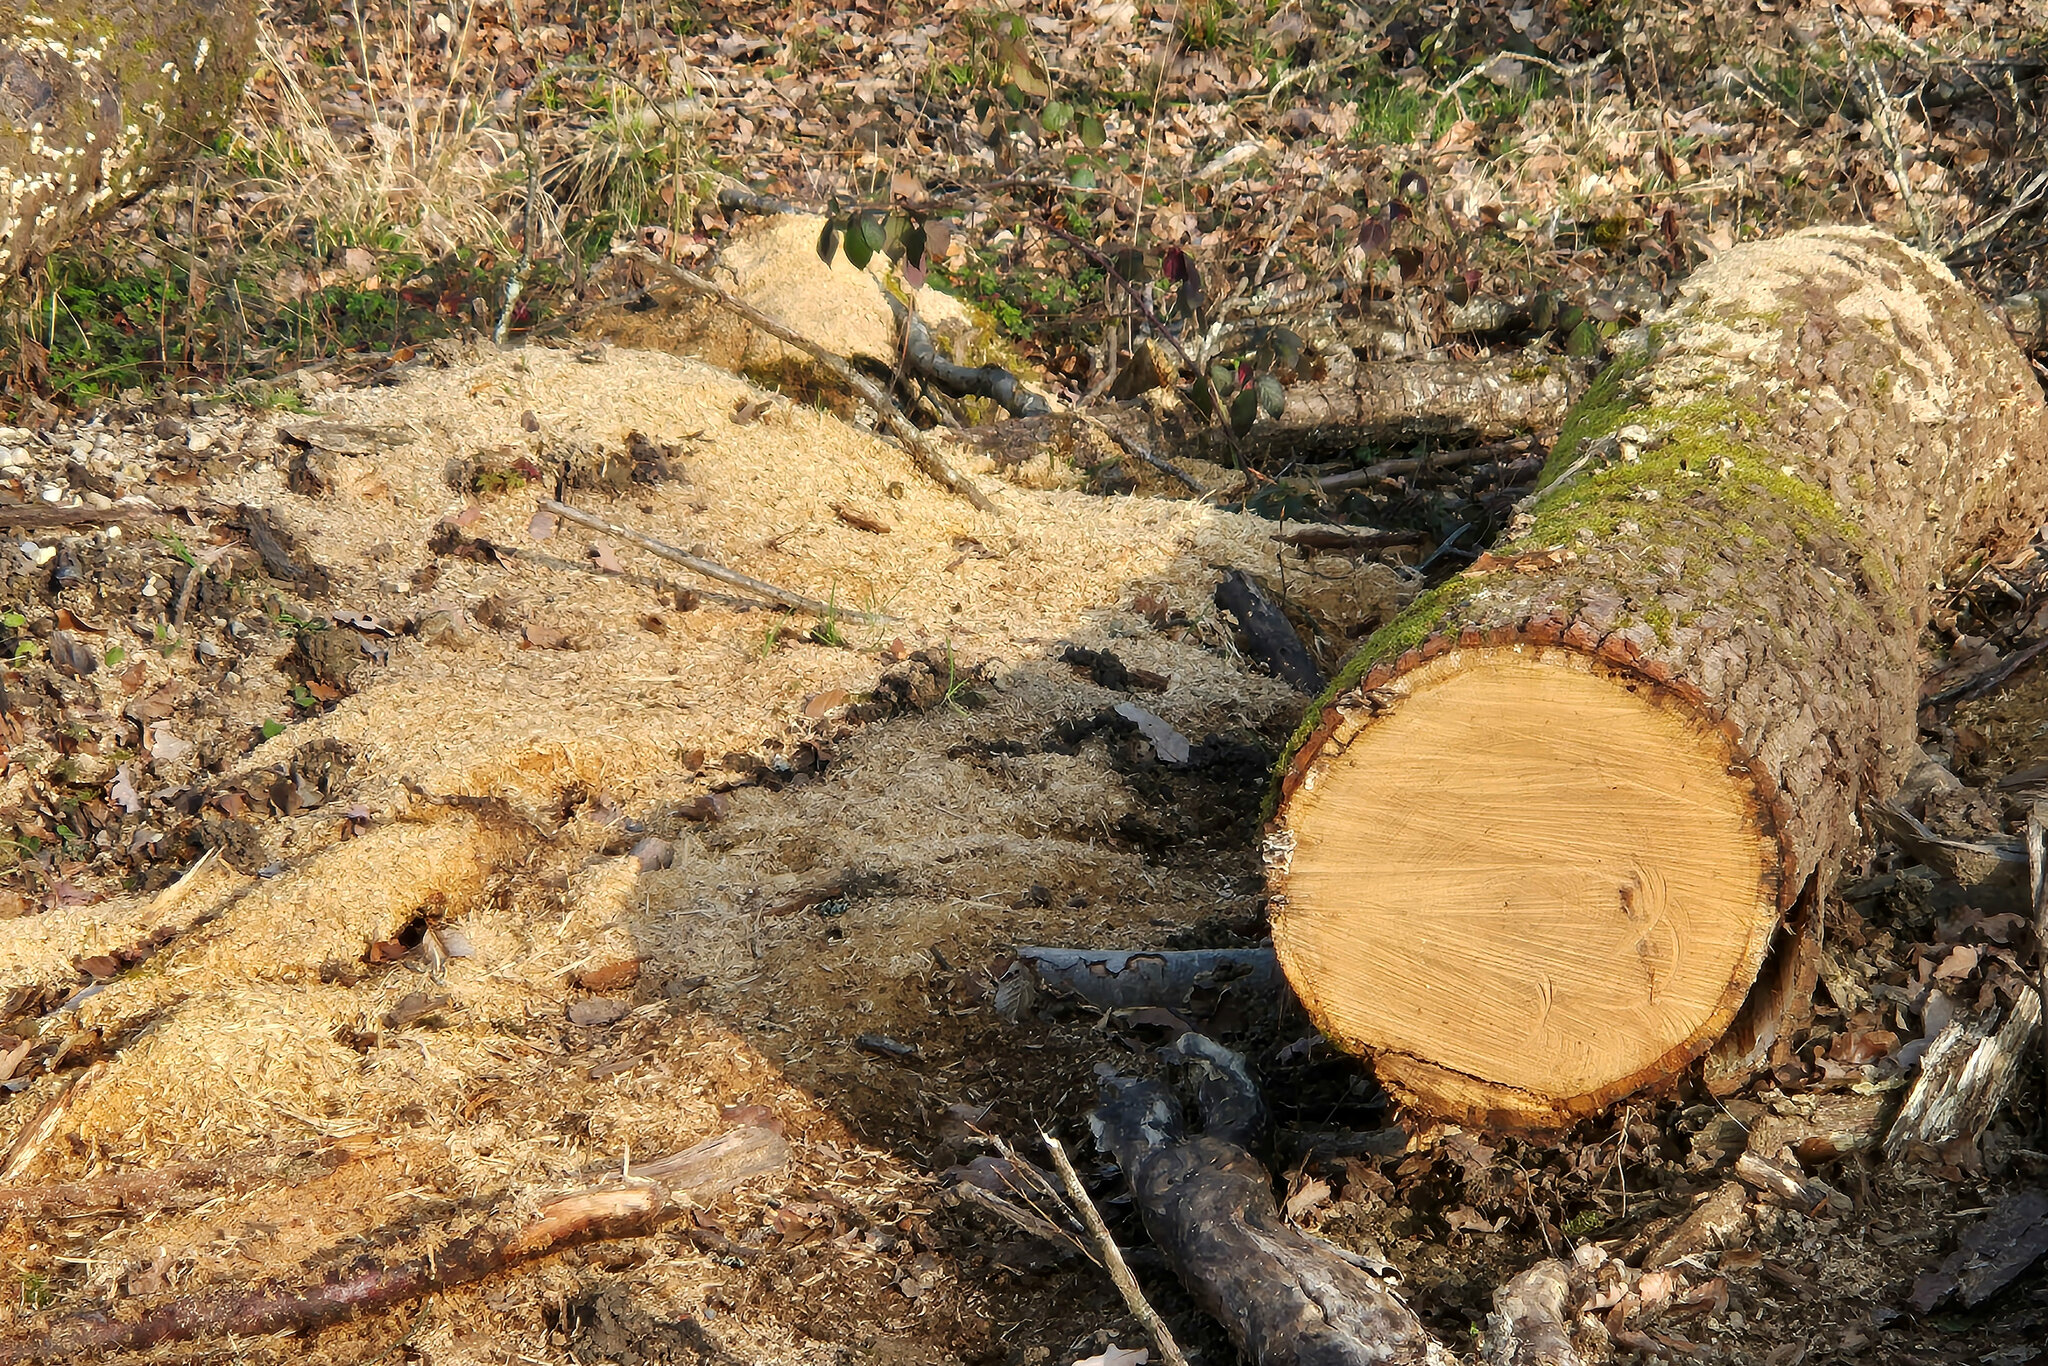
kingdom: Animalia
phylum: Arthropoda
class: Insecta
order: Coleoptera
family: Staphylinidae
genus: Quedius
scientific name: Quedius lateralis
